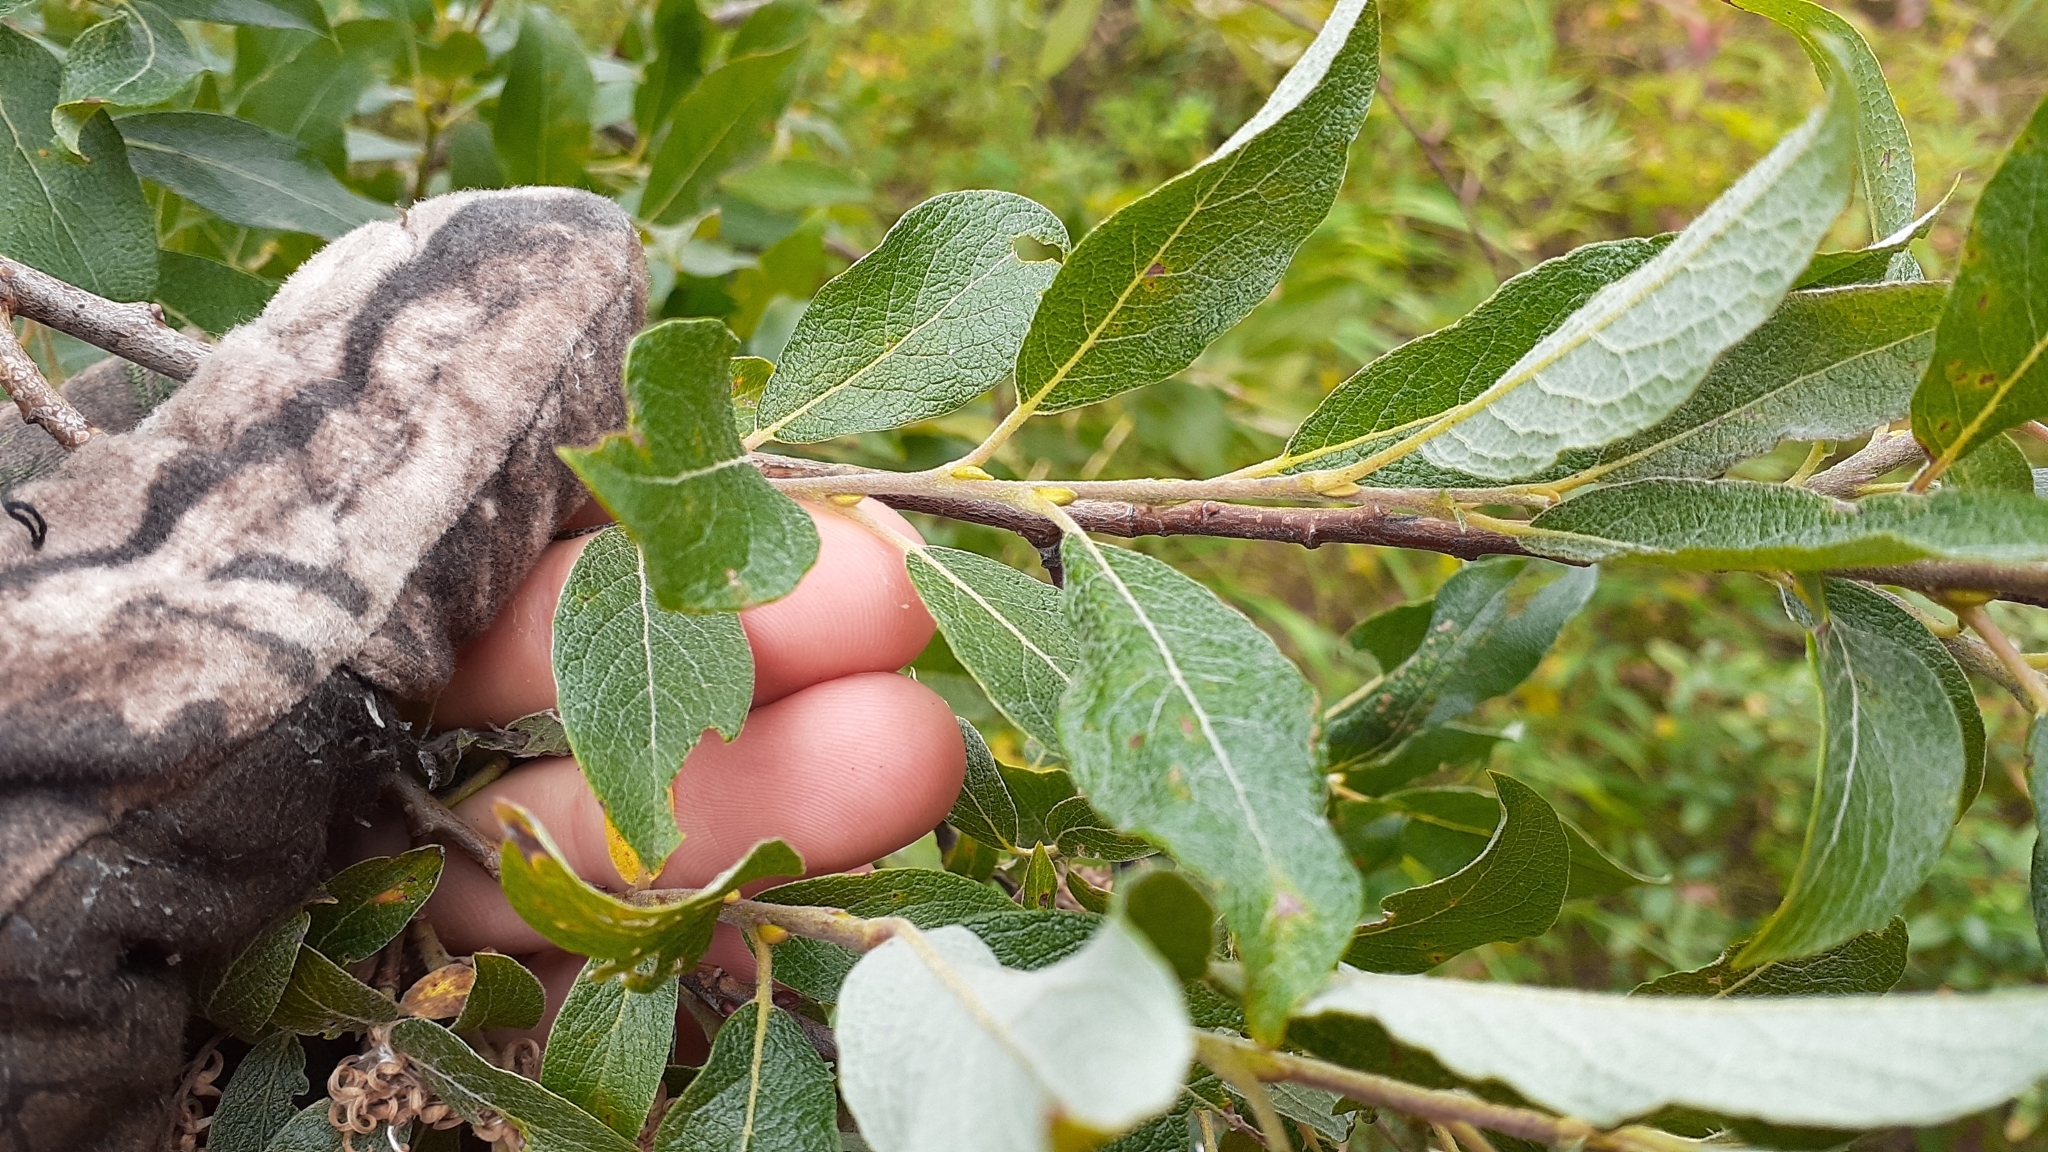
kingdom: Plantae
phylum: Tracheophyta
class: Magnoliopsida
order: Malpighiales
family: Salicaceae
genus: Salix
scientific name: Salix bebbiana
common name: Bebb's willow
